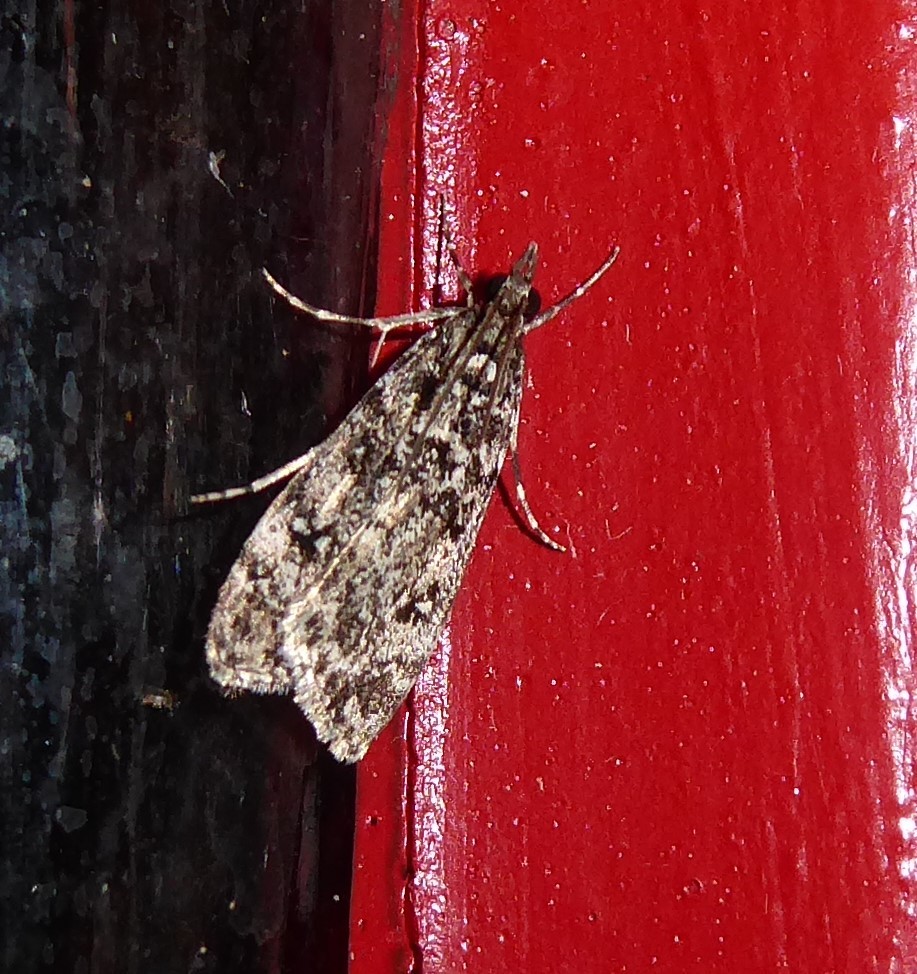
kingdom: Animalia
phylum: Arthropoda
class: Insecta
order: Lepidoptera
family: Crambidae
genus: Eudonia
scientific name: Eudonia philerga
